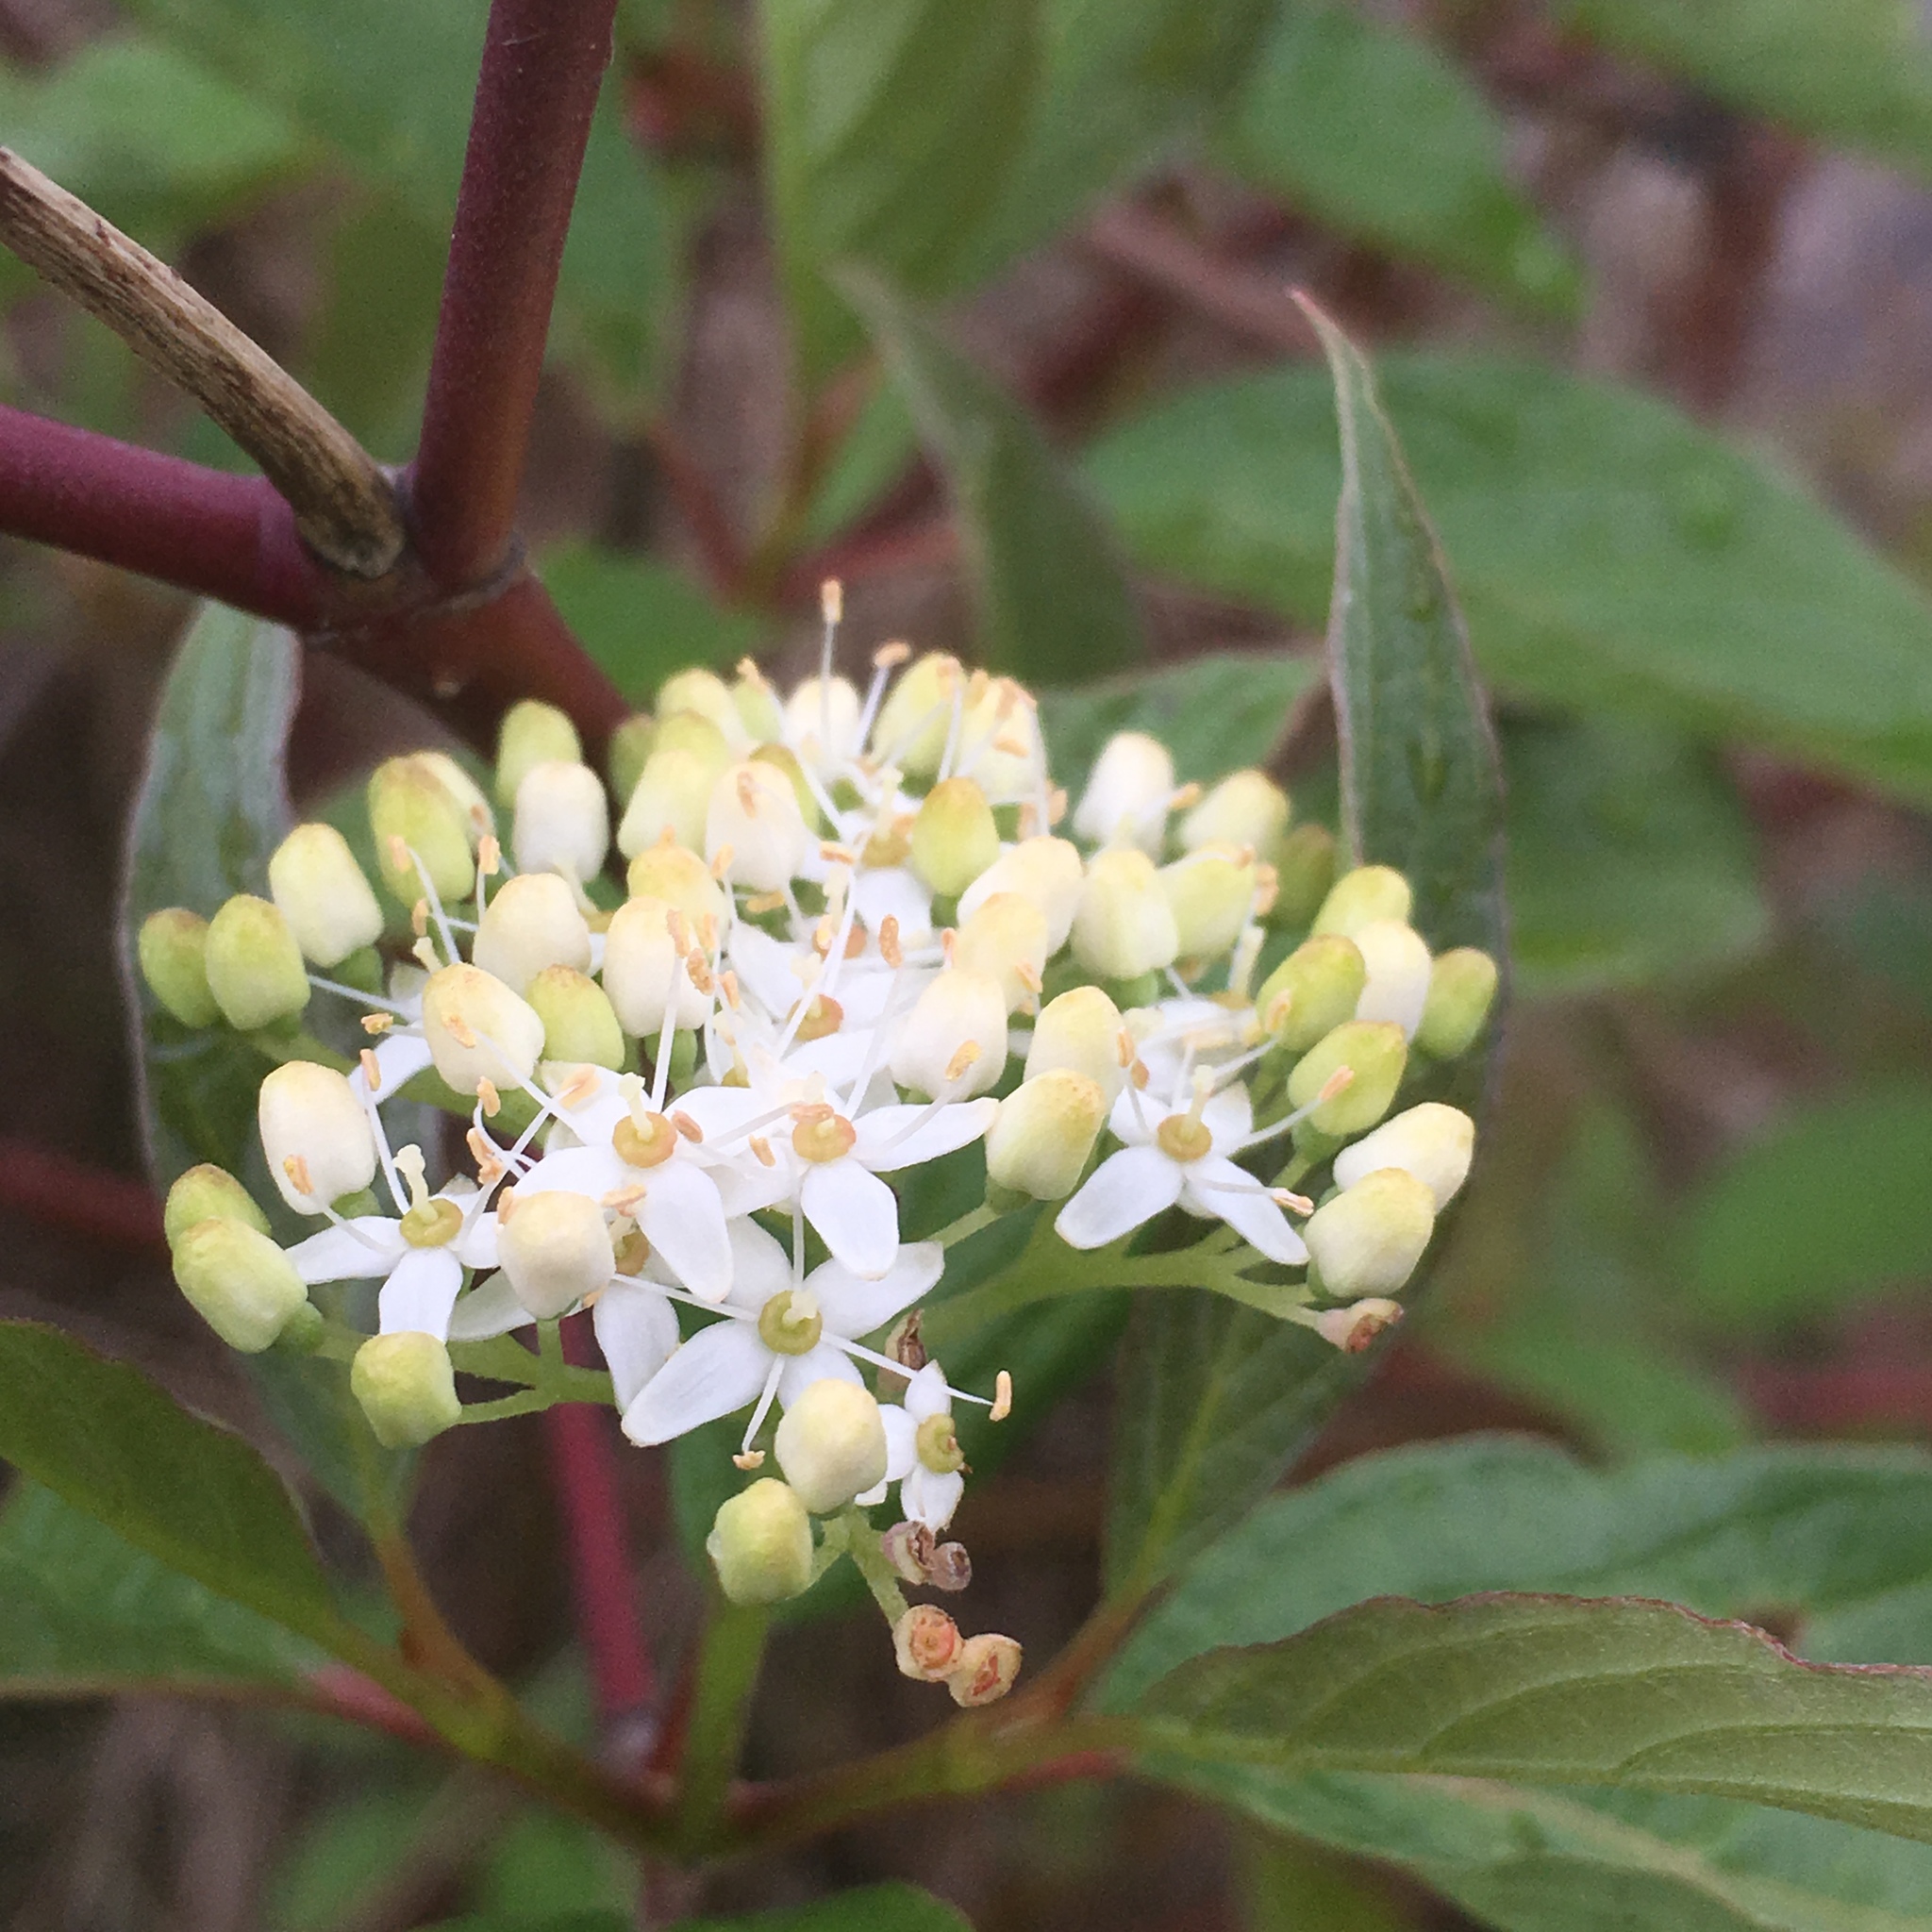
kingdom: Plantae
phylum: Tracheophyta
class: Magnoliopsida
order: Cornales
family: Cornaceae
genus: Cornus
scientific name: Cornus sericea
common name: Red-osier dogwood
